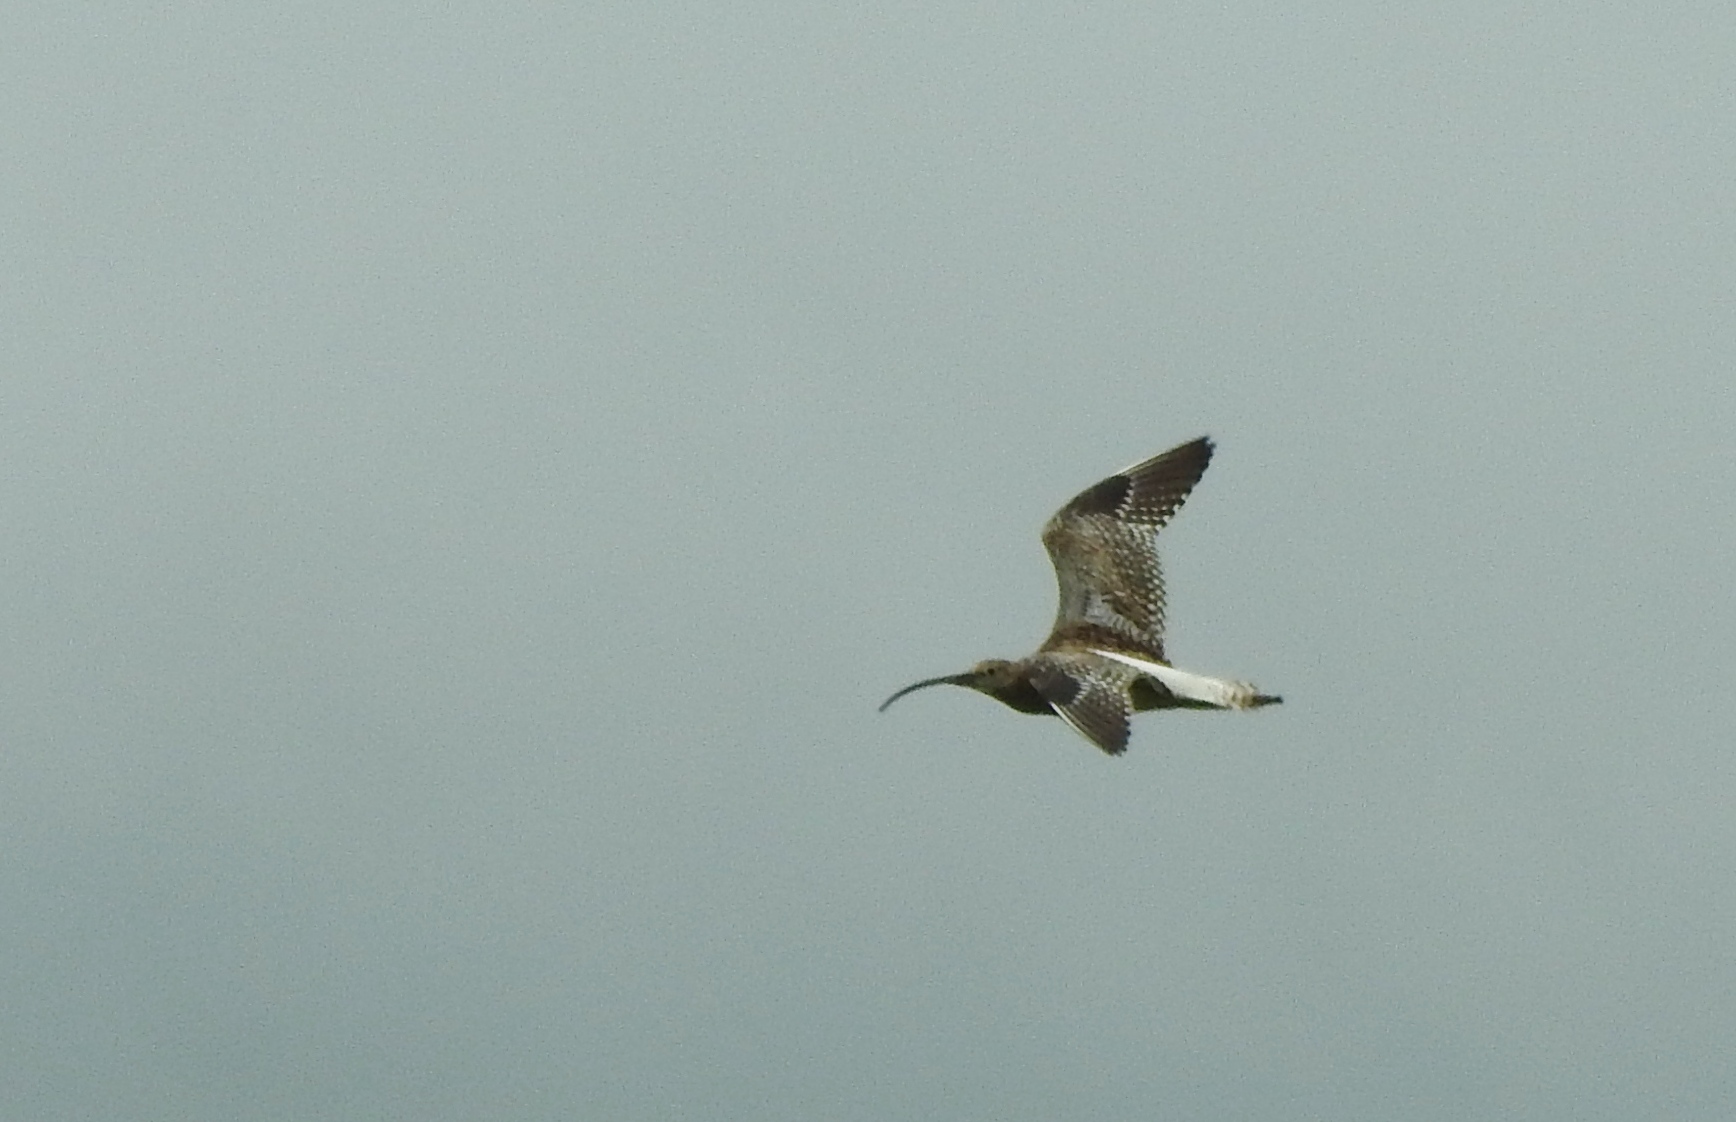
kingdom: Animalia
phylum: Chordata
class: Aves
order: Charadriiformes
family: Scolopacidae
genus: Numenius
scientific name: Numenius arquata
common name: Eurasian curlew
